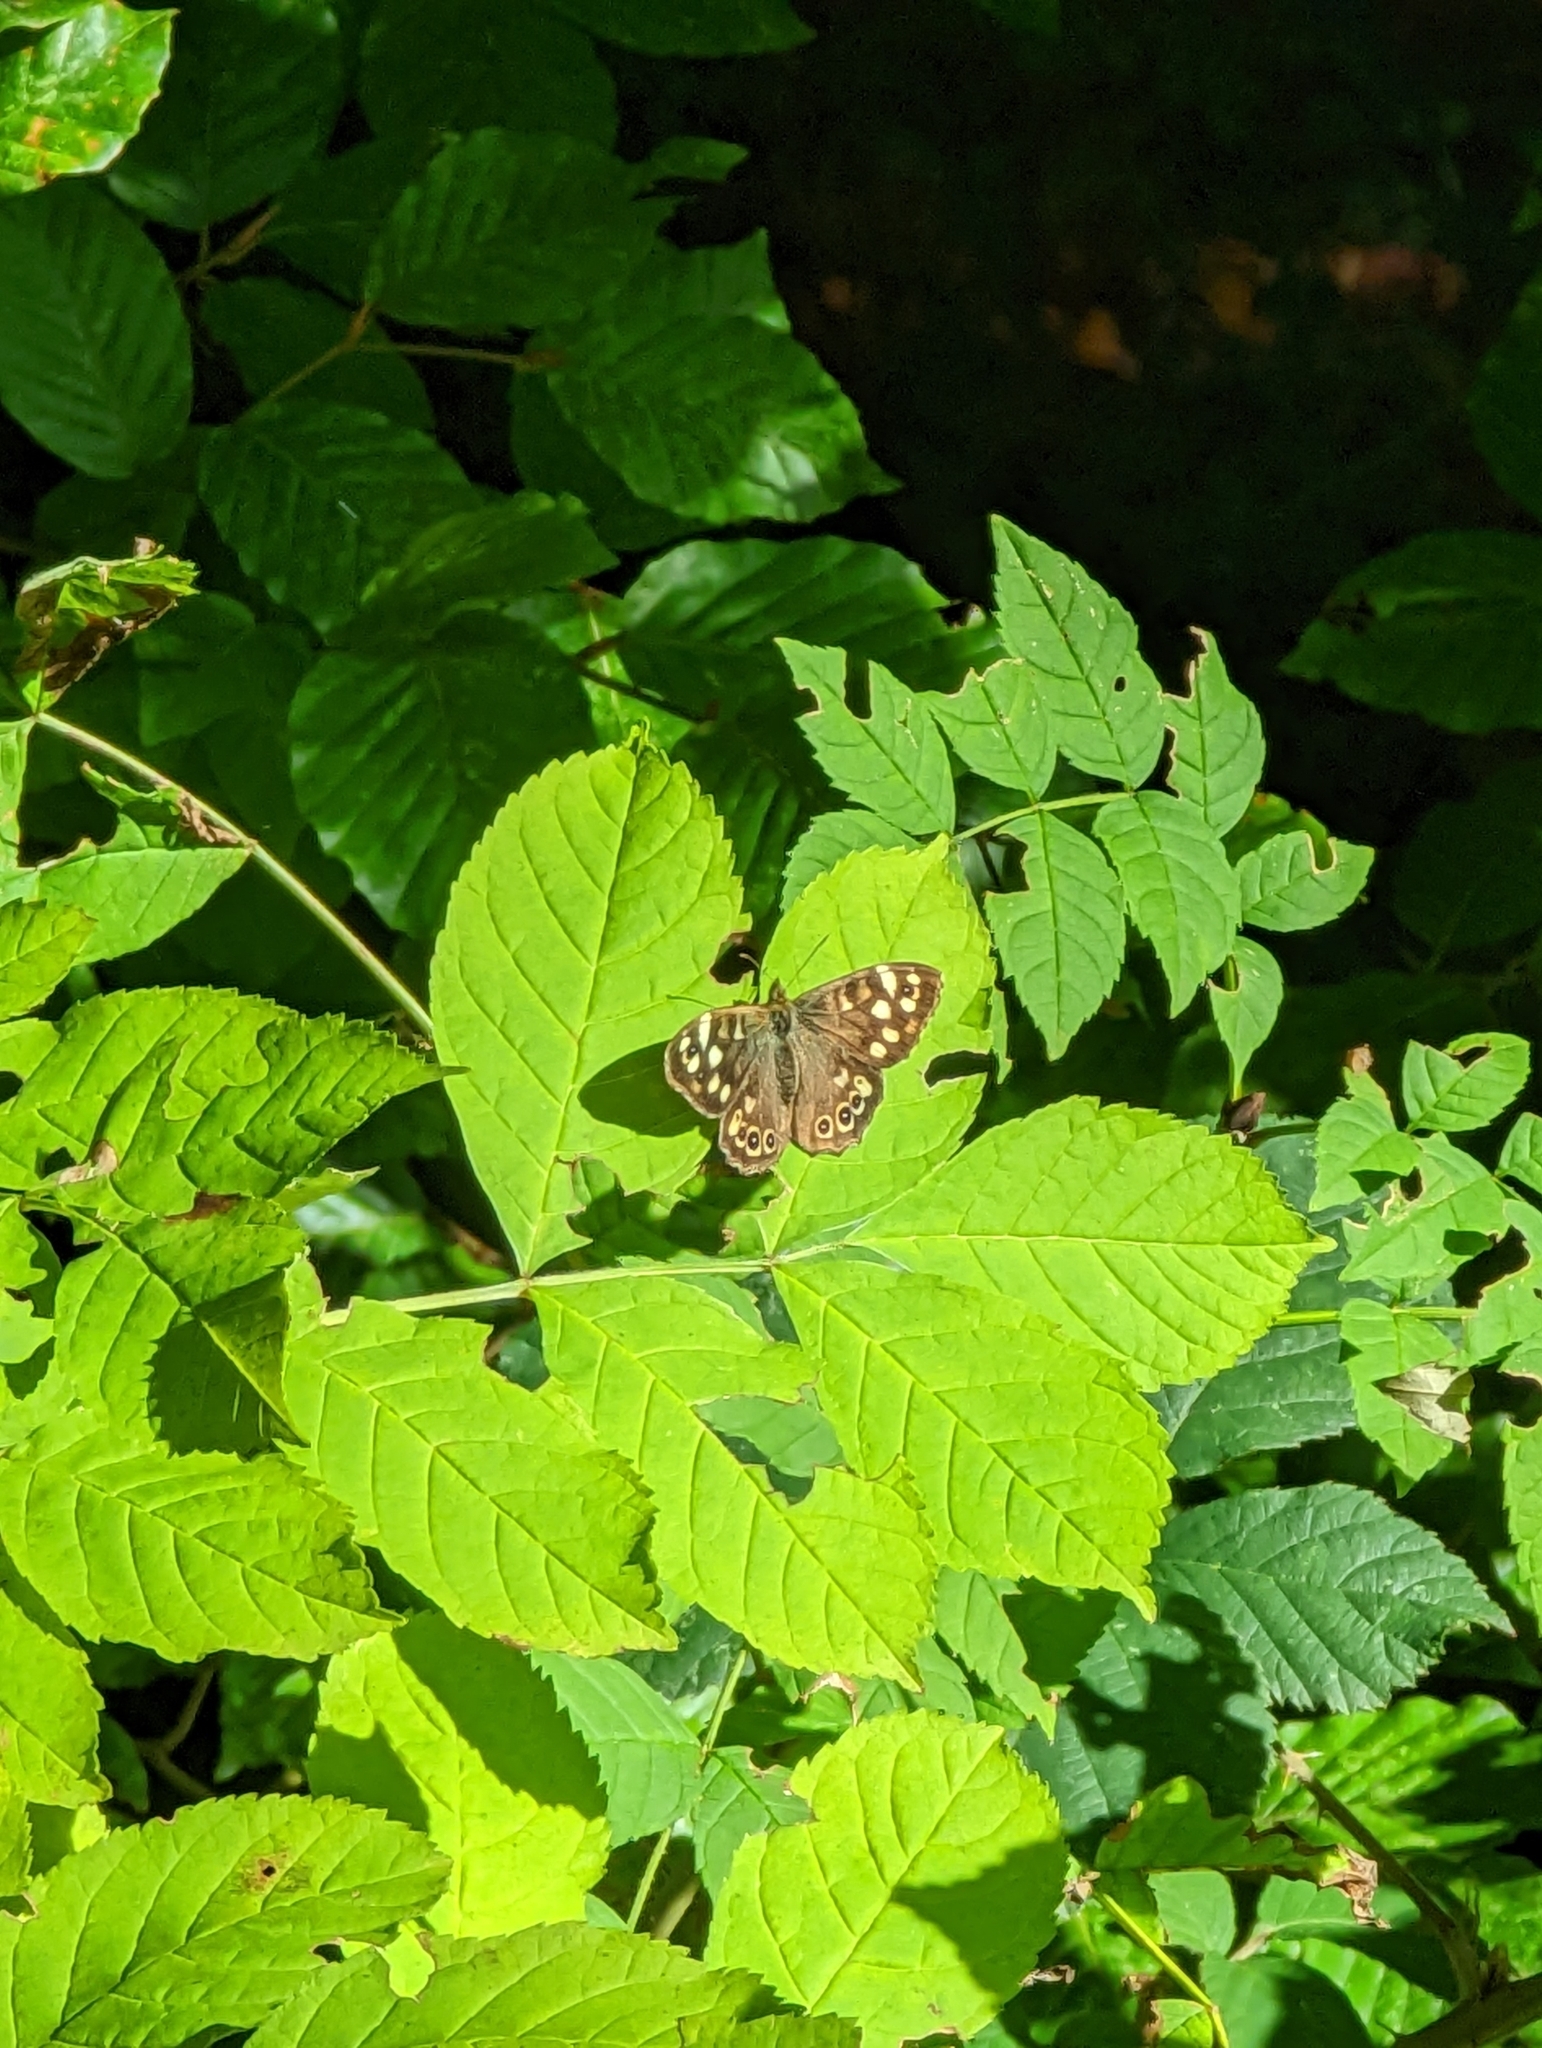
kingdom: Animalia
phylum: Arthropoda
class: Insecta
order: Lepidoptera
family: Nymphalidae
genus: Pararge
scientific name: Pararge aegeria
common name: Speckled wood
